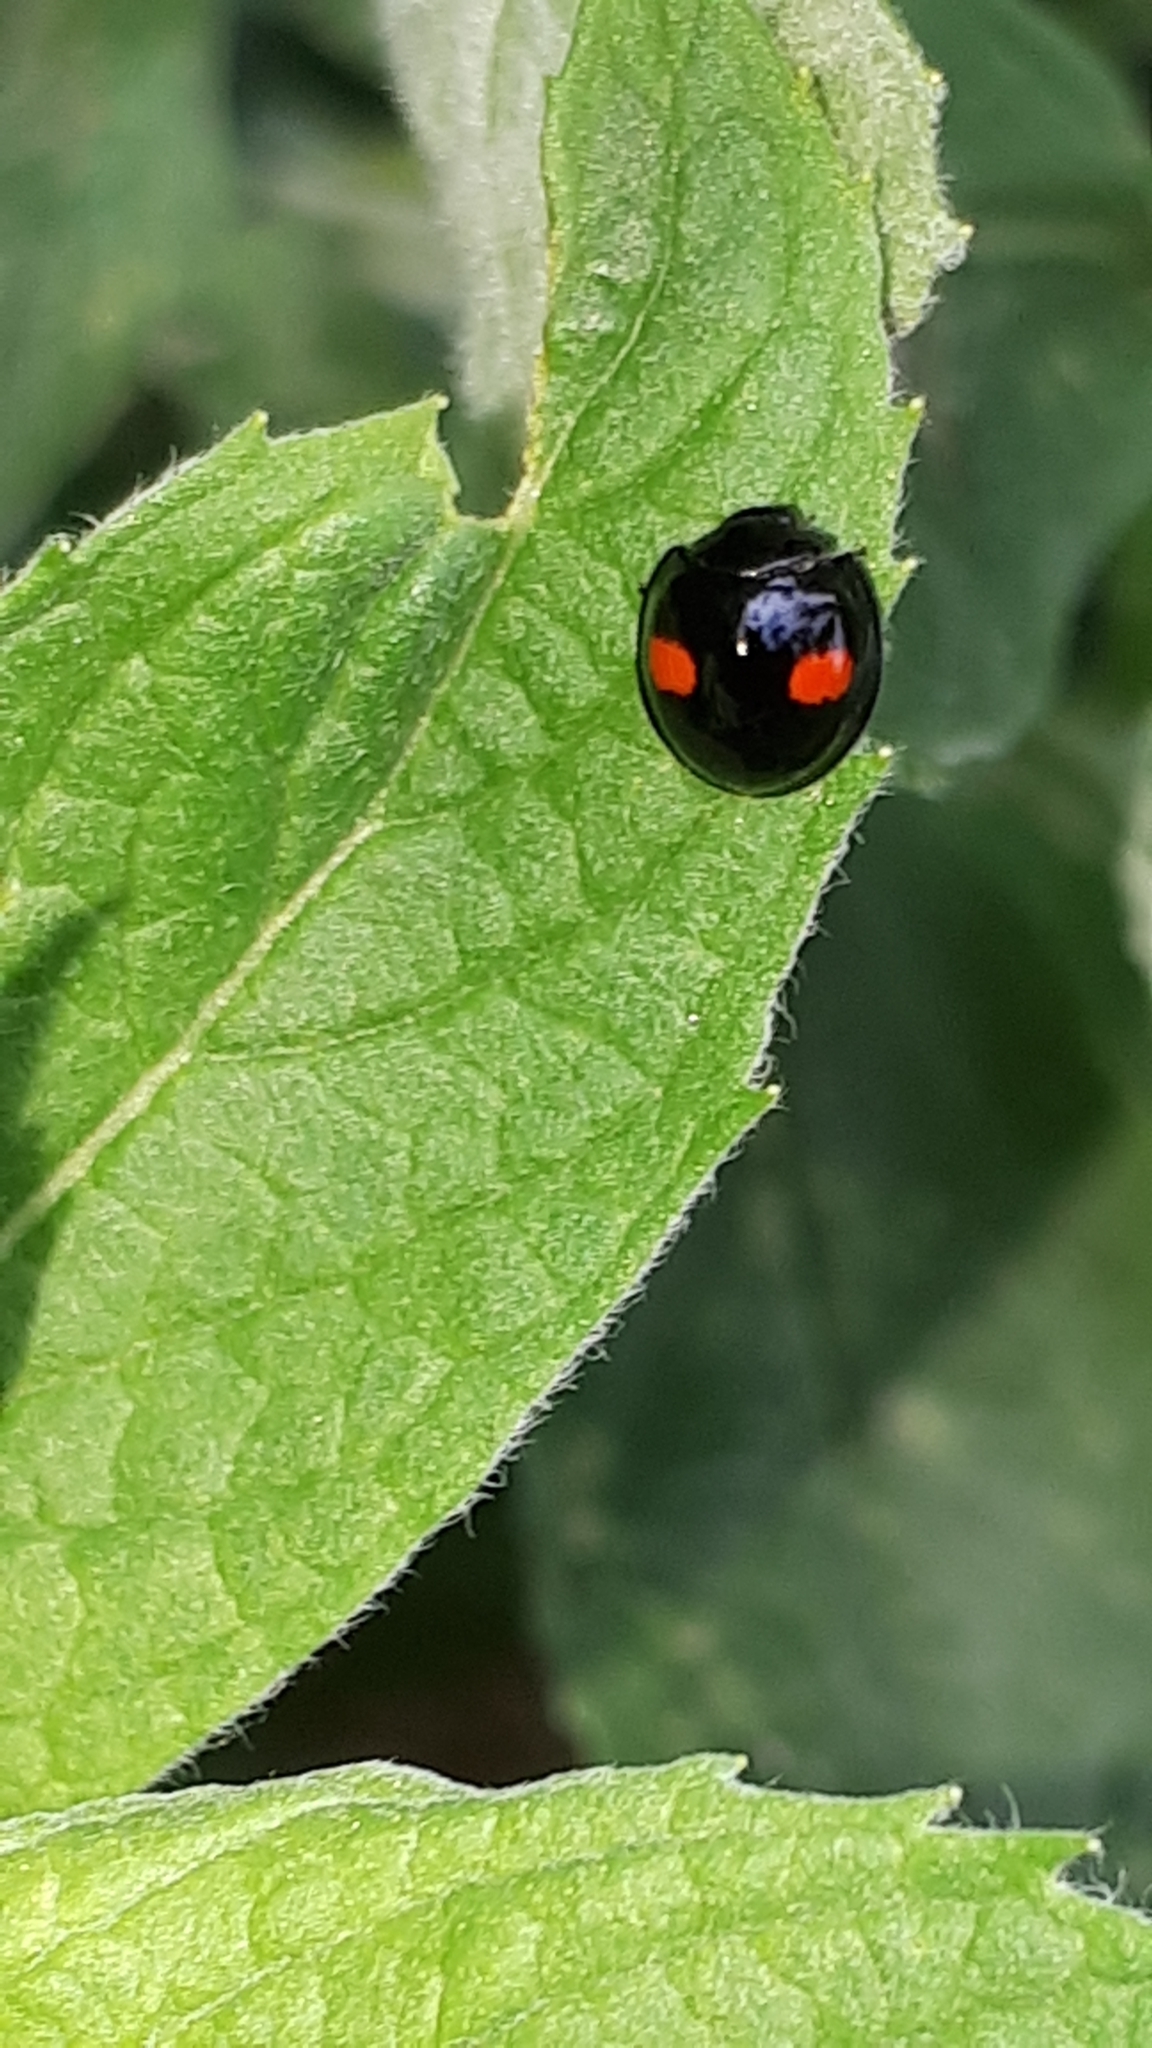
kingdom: Animalia
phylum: Arthropoda
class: Insecta
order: Coleoptera
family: Coccinellidae
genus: Chilocorus
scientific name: Chilocorus renipustulatus
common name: Kidney-spot ladybird
